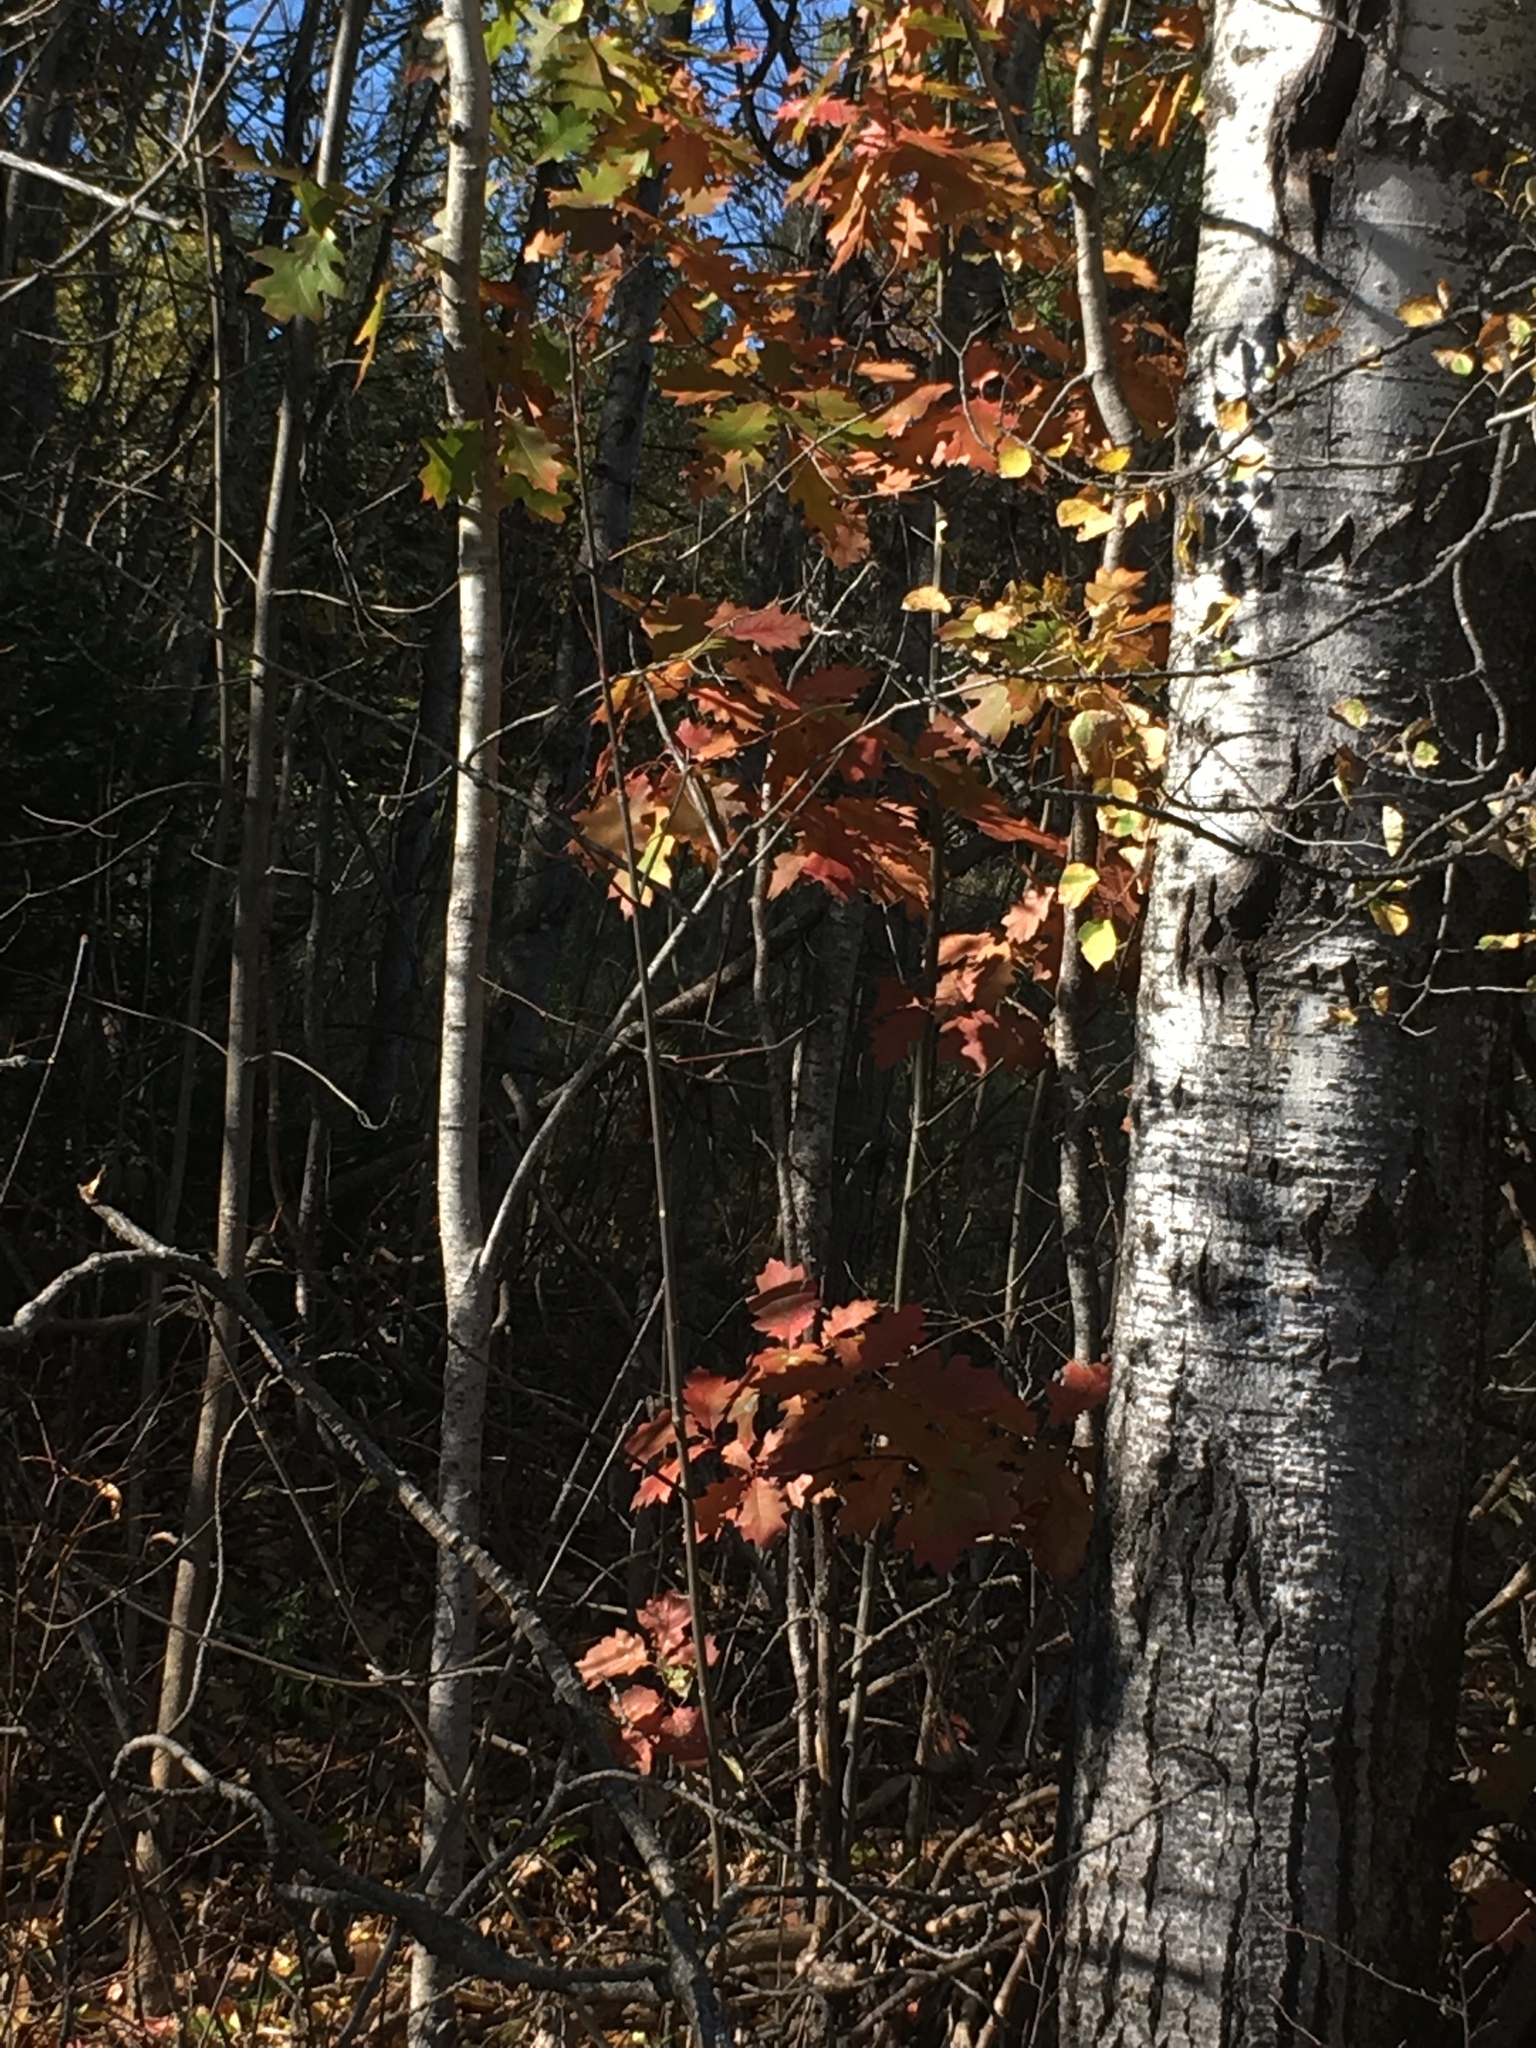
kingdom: Plantae
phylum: Tracheophyta
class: Magnoliopsida
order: Fagales
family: Fagaceae
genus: Quercus
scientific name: Quercus rubra
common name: Red oak
